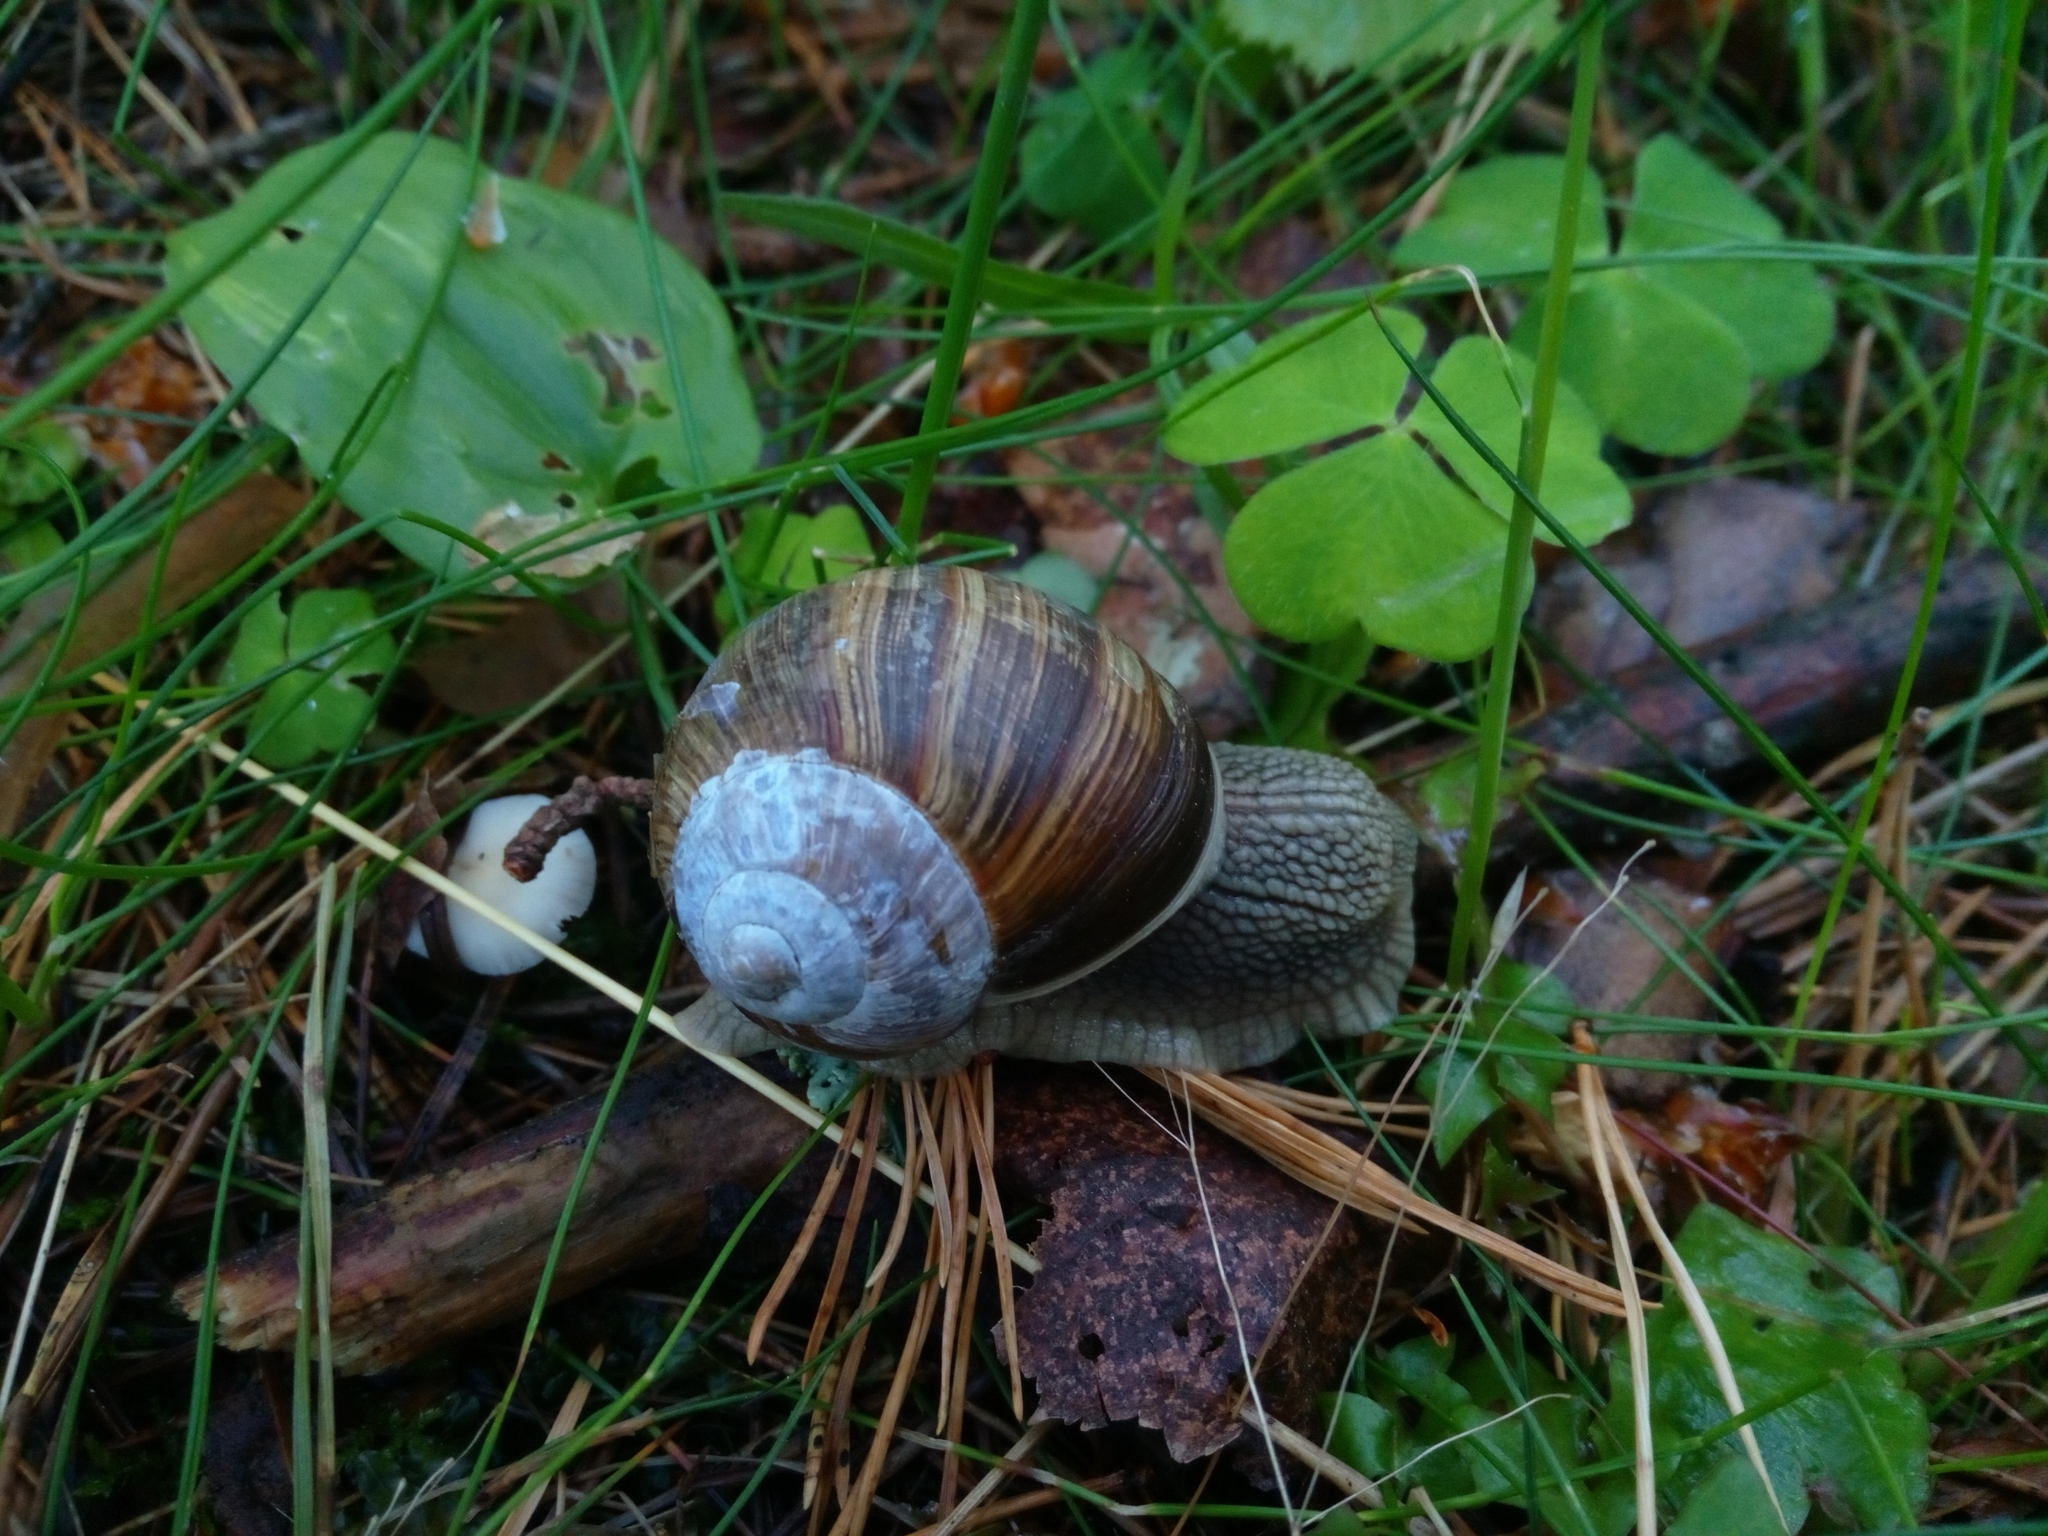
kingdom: Animalia
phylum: Mollusca
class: Gastropoda
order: Stylommatophora
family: Helicidae
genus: Helix
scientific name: Helix pomatia
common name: Roman snail
